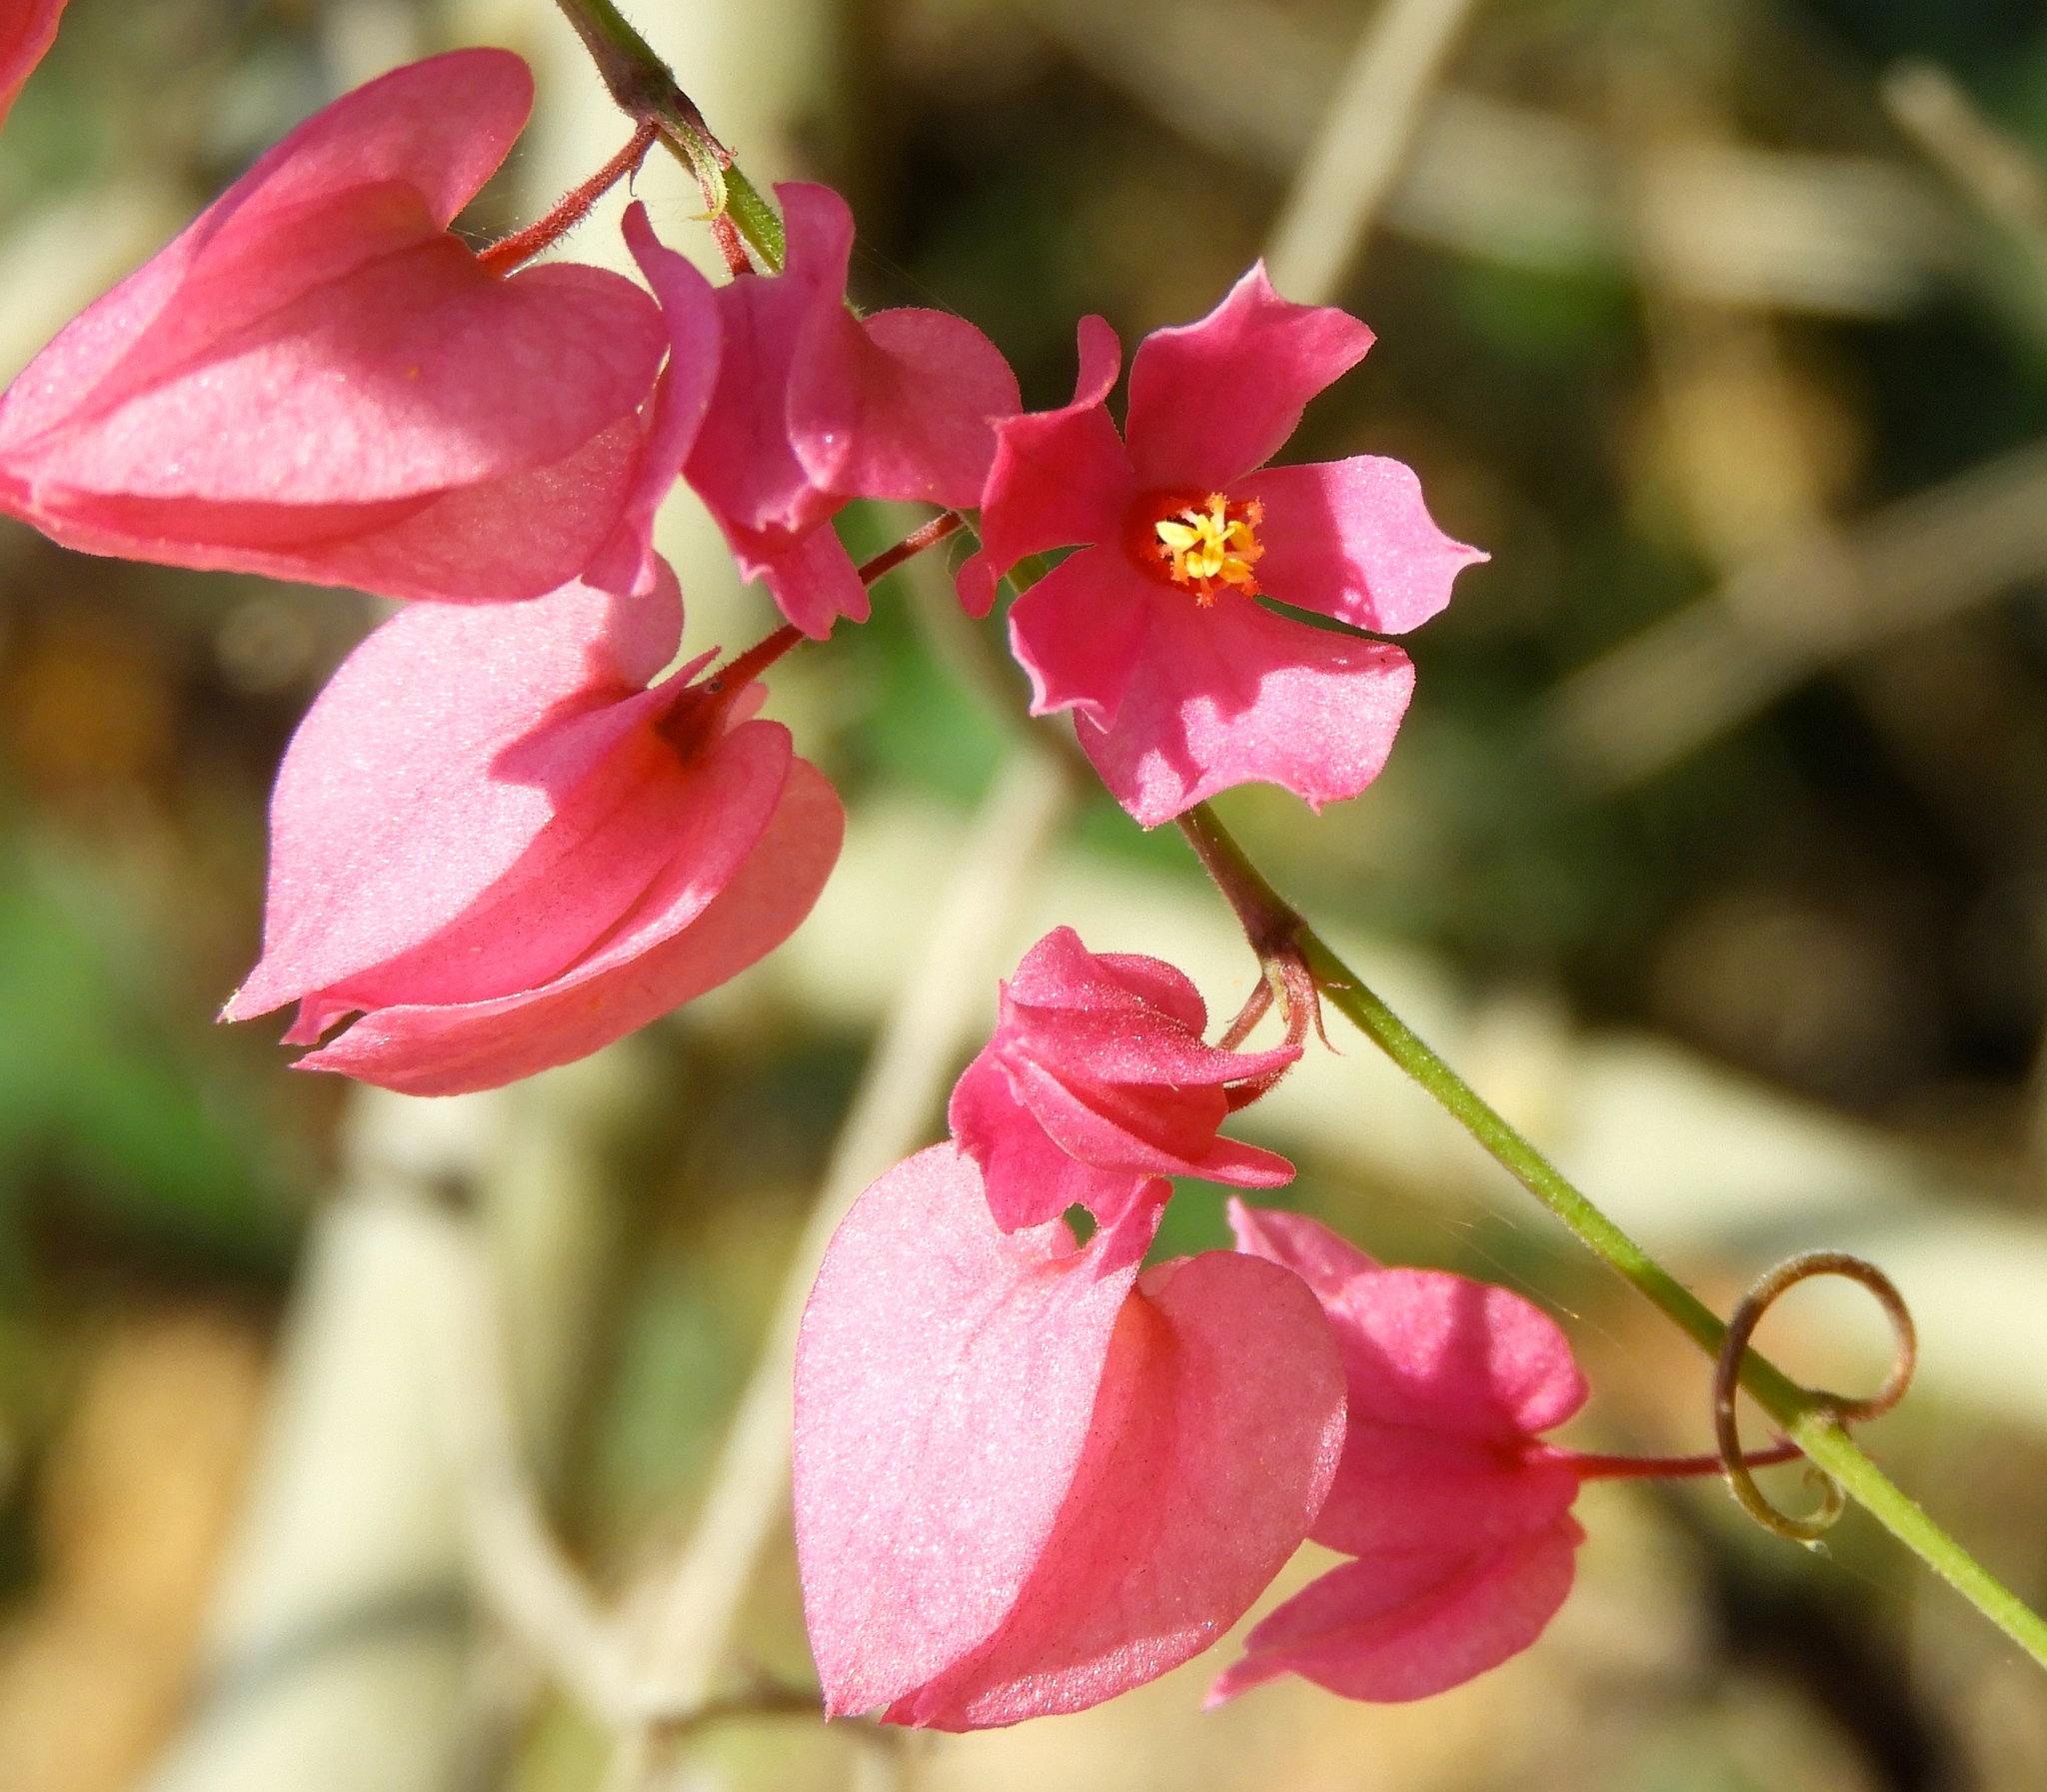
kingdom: Plantae
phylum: Tracheophyta
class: Magnoliopsida
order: Caryophyllales
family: Polygonaceae
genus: Antigonon
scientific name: Antigonon leptopus
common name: Coral vine
